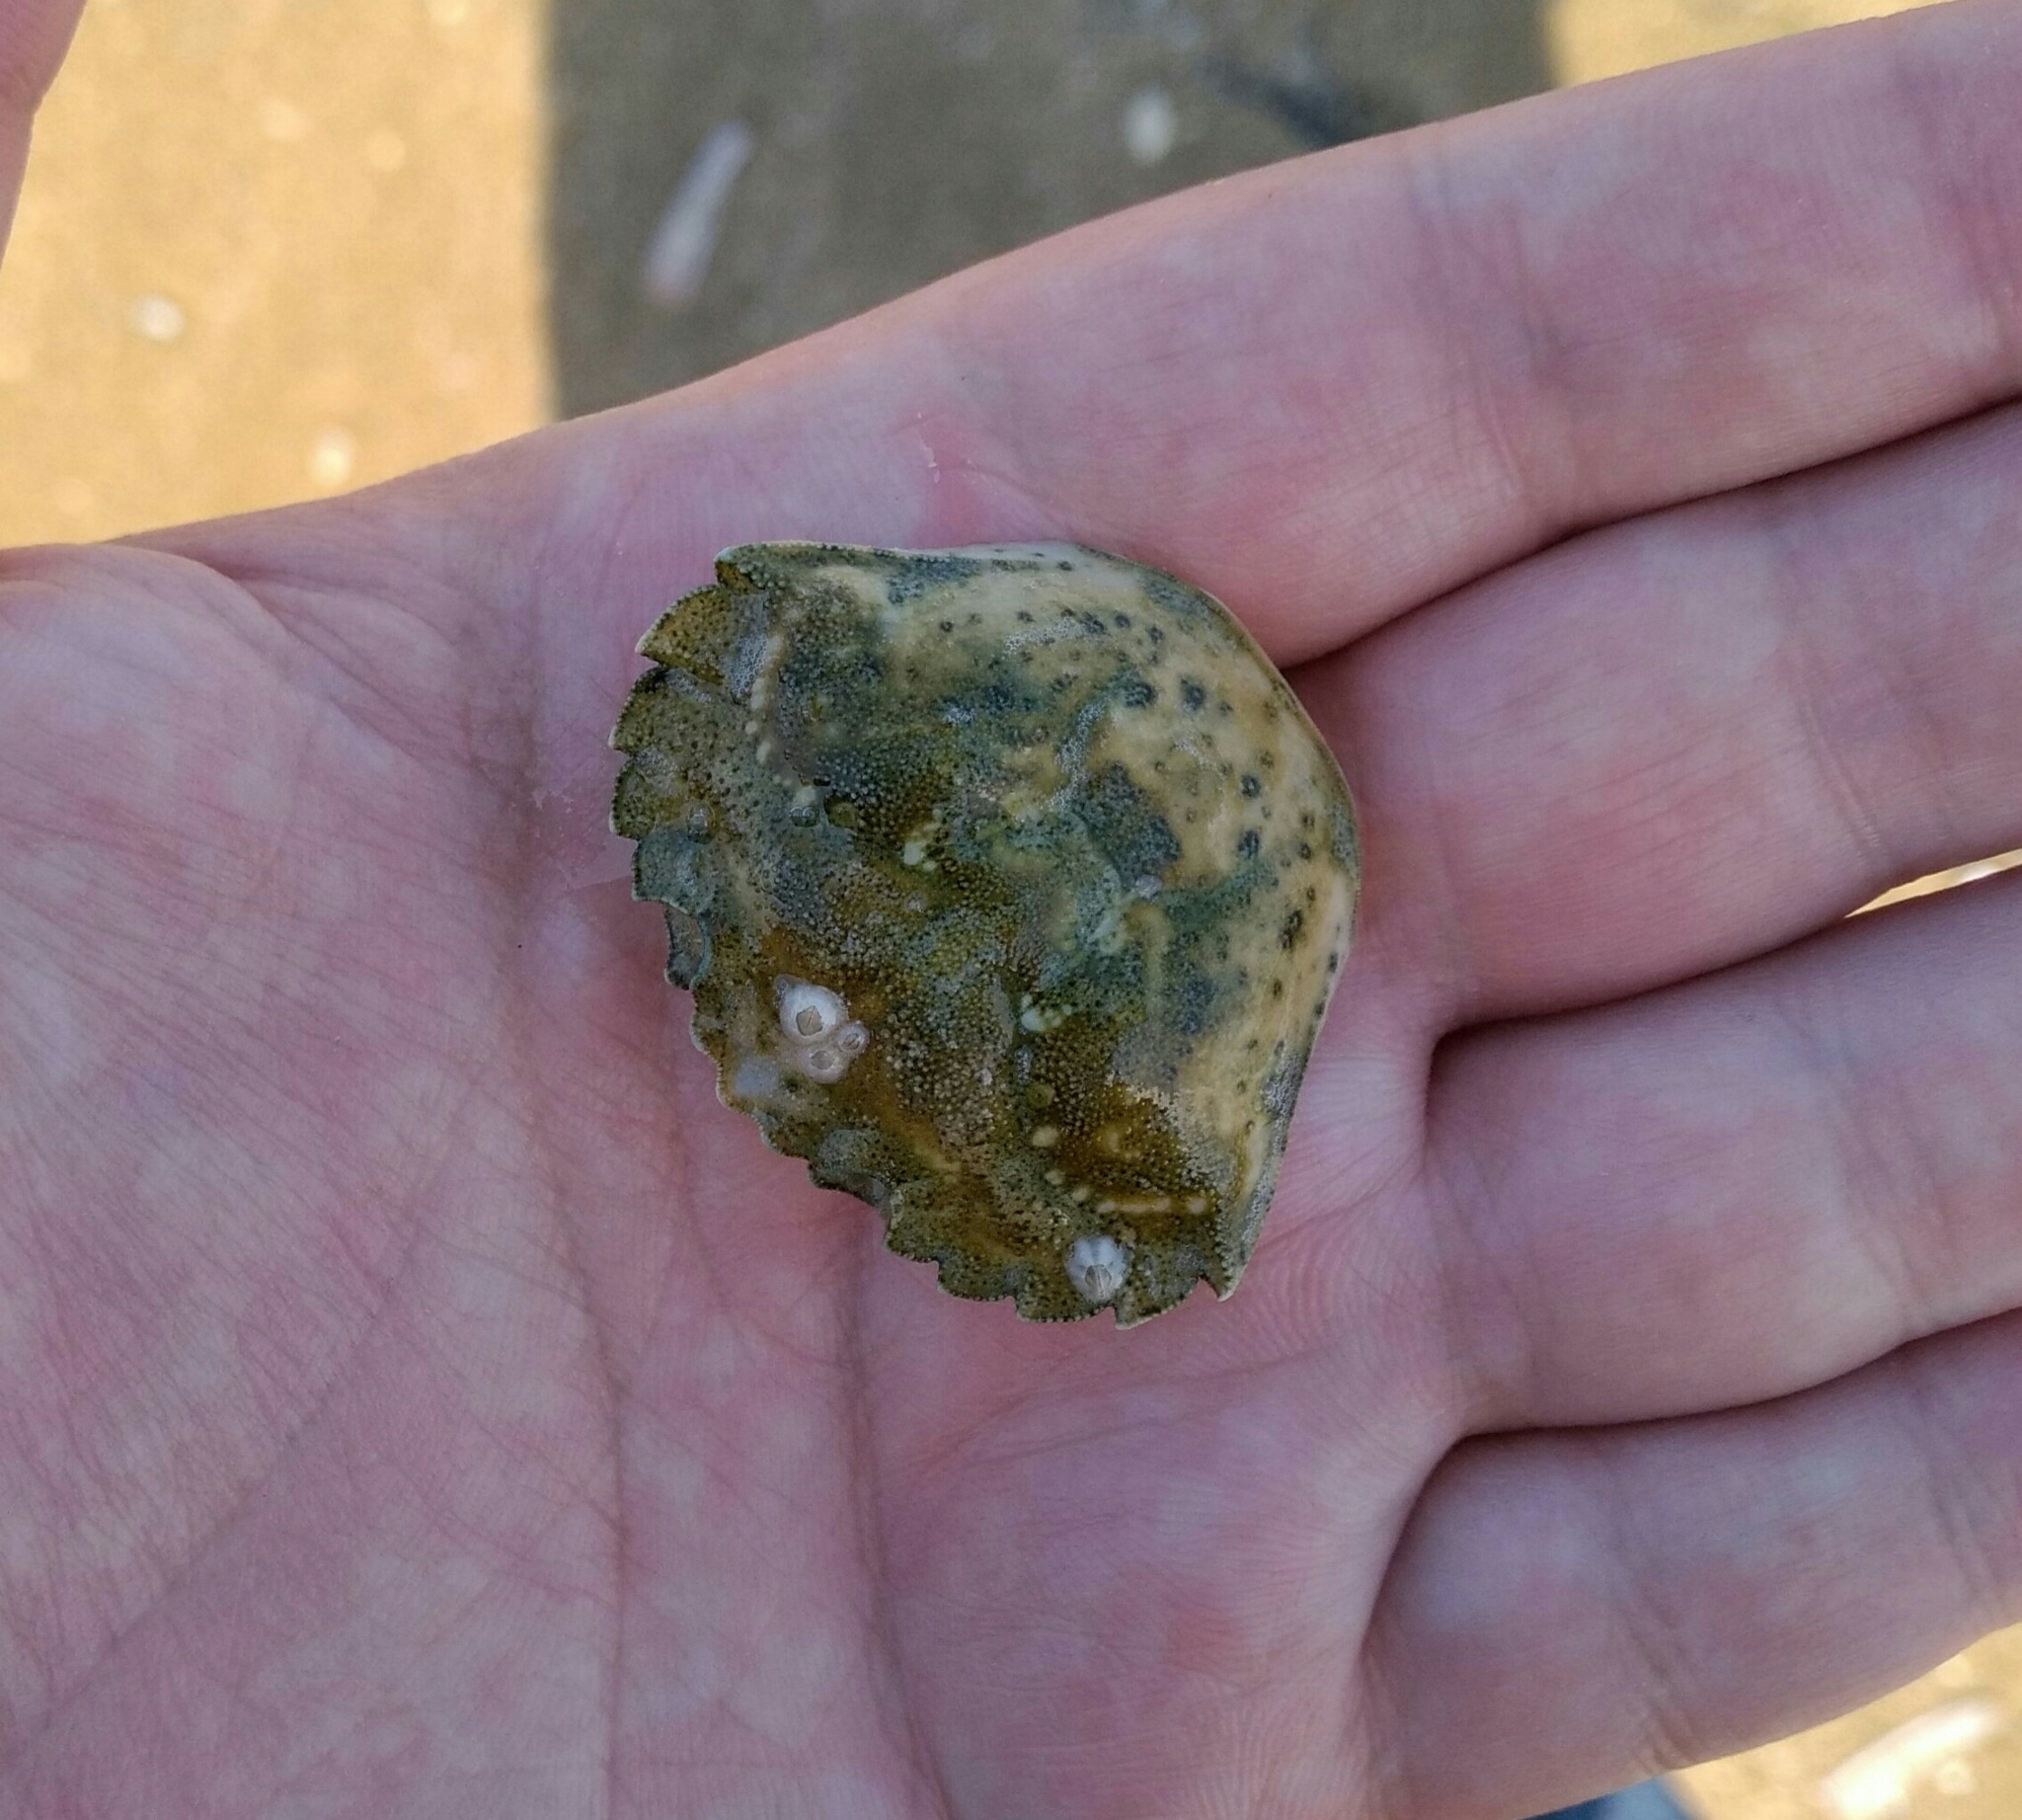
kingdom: Animalia
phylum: Arthropoda
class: Malacostraca
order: Decapoda
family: Carcinidae
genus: Carcinus
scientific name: Carcinus maenas
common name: European green crab
